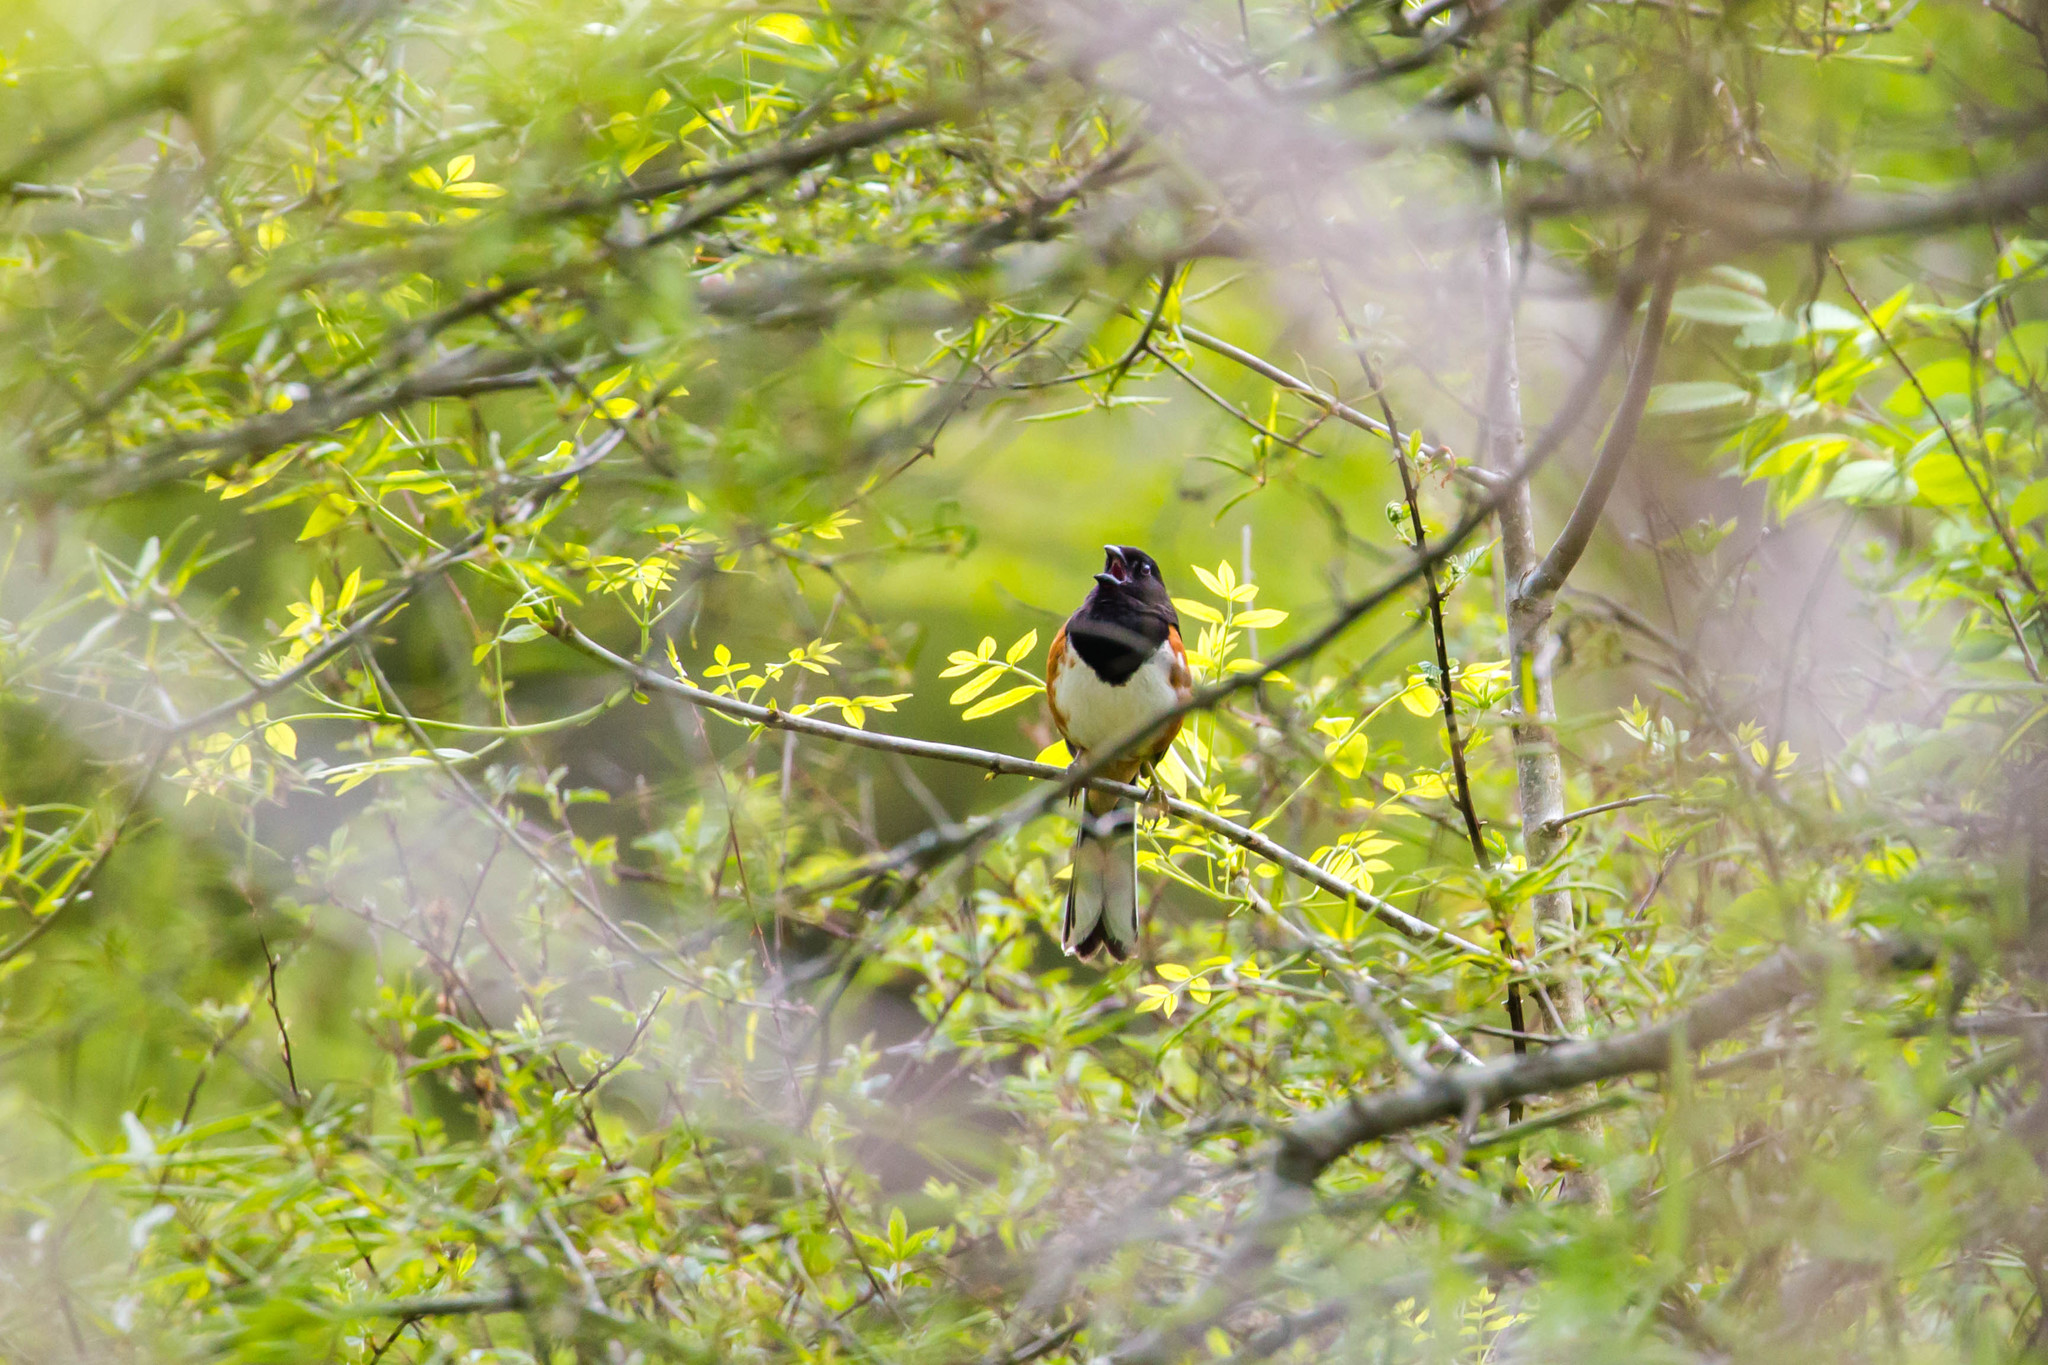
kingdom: Animalia
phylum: Chordata
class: Aves
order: Passeriformes
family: Passerellidae
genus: Pipilo
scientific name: Pipilo erythrophthalmus
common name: Eastern towhee
